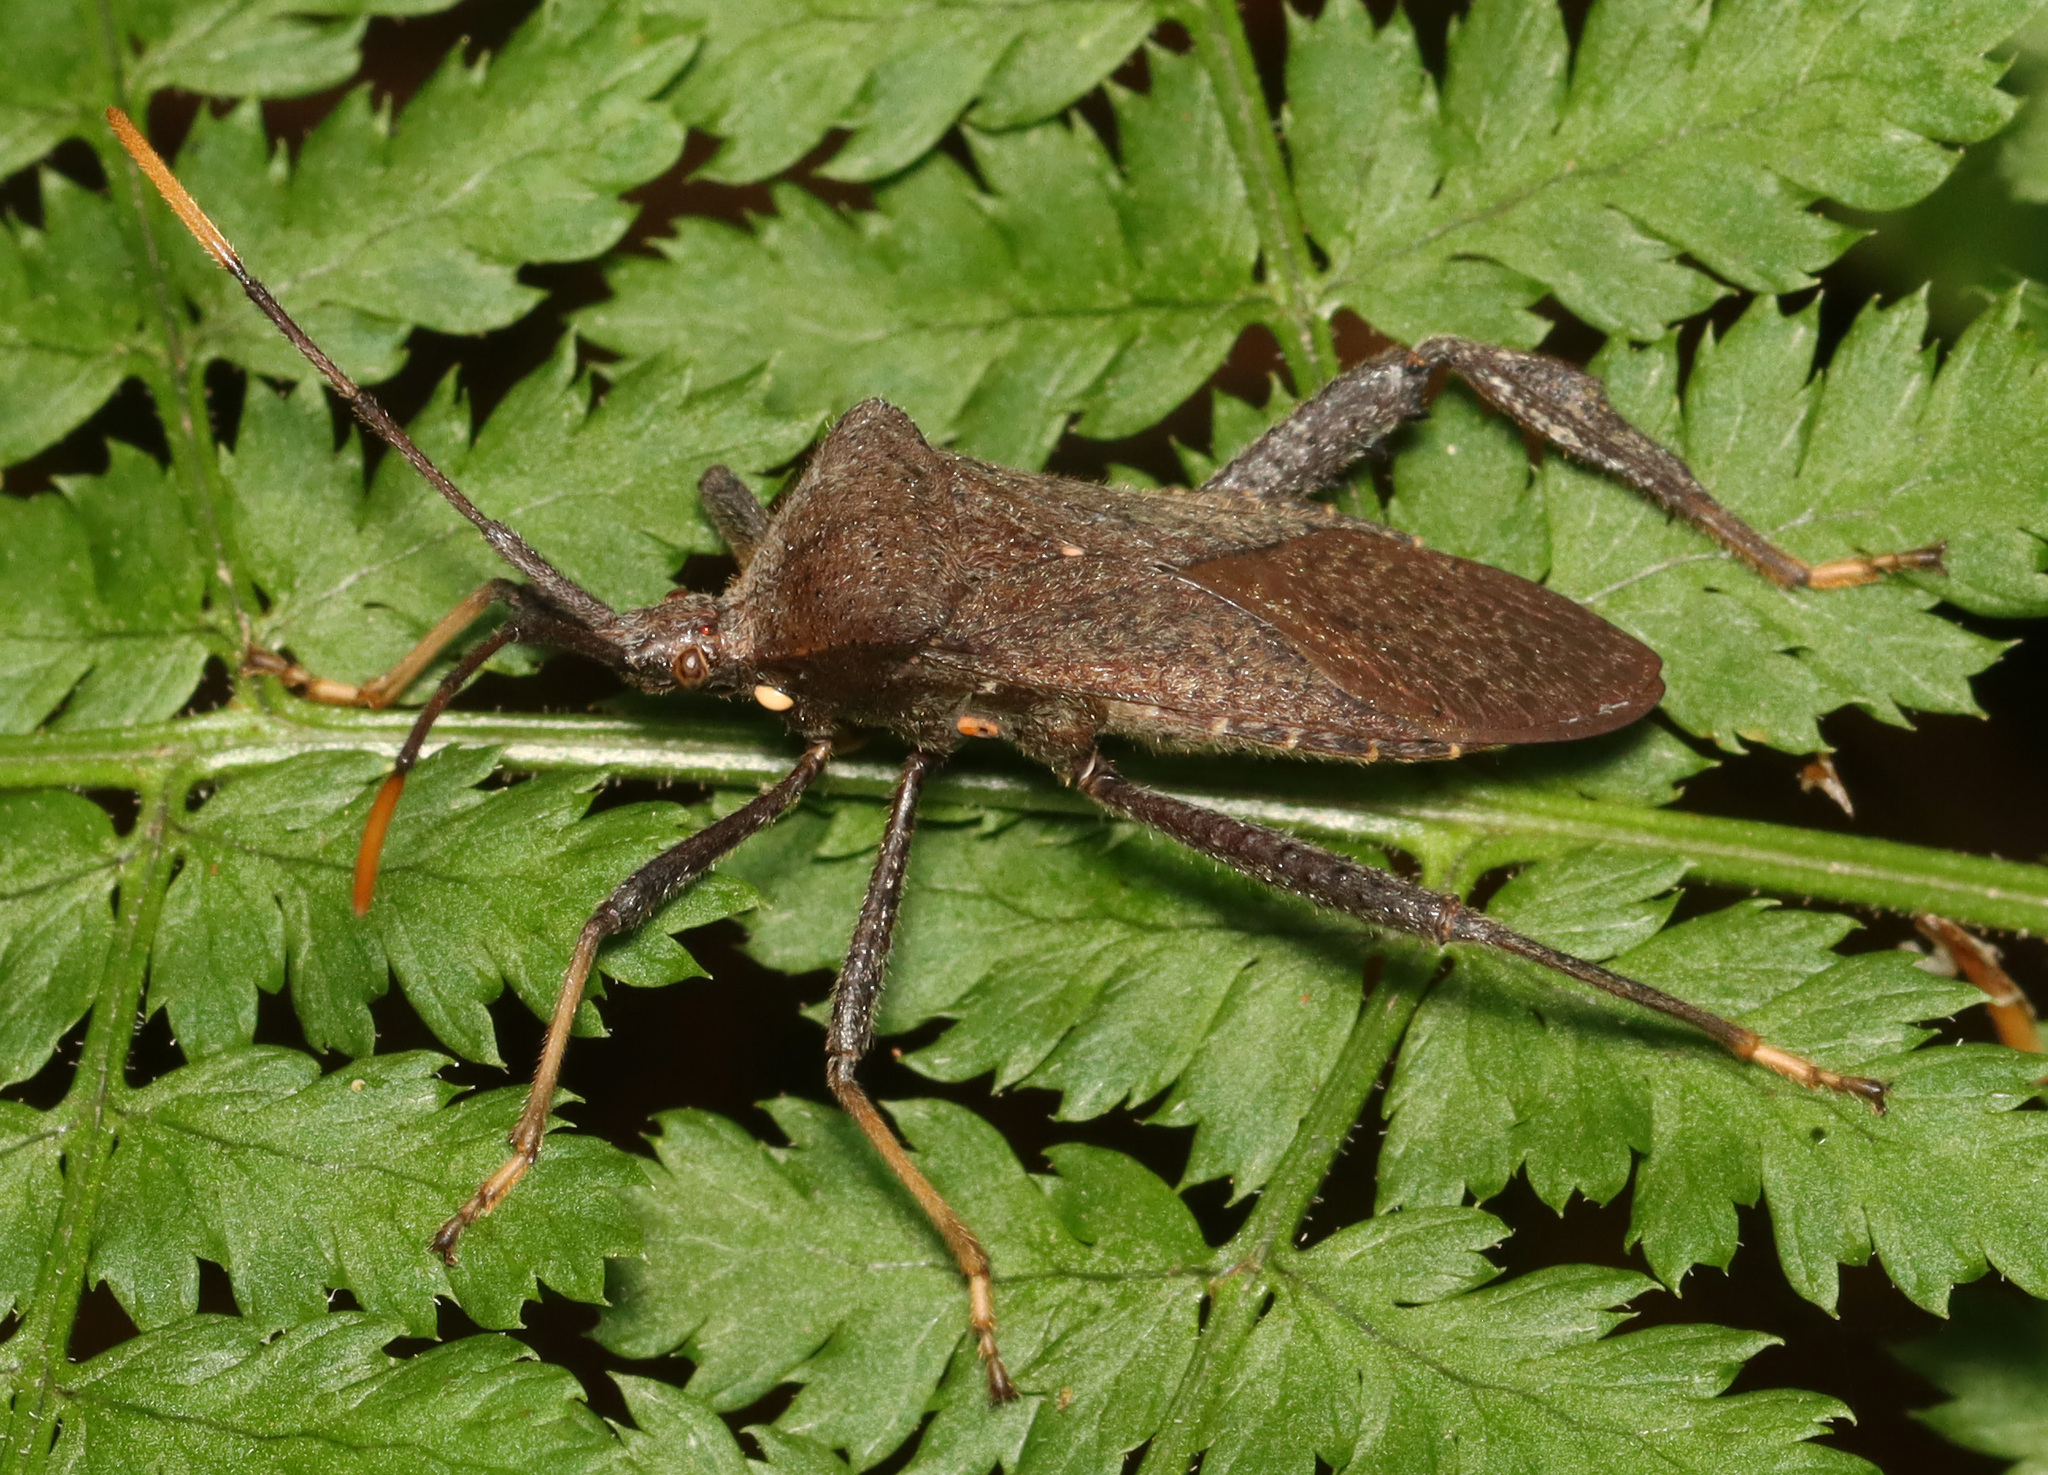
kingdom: Animalia
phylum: Arthropoda
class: Insecta
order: Hemiptera
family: Coreidae
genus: Acanthocephala
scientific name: Acanthocephala terminalis
